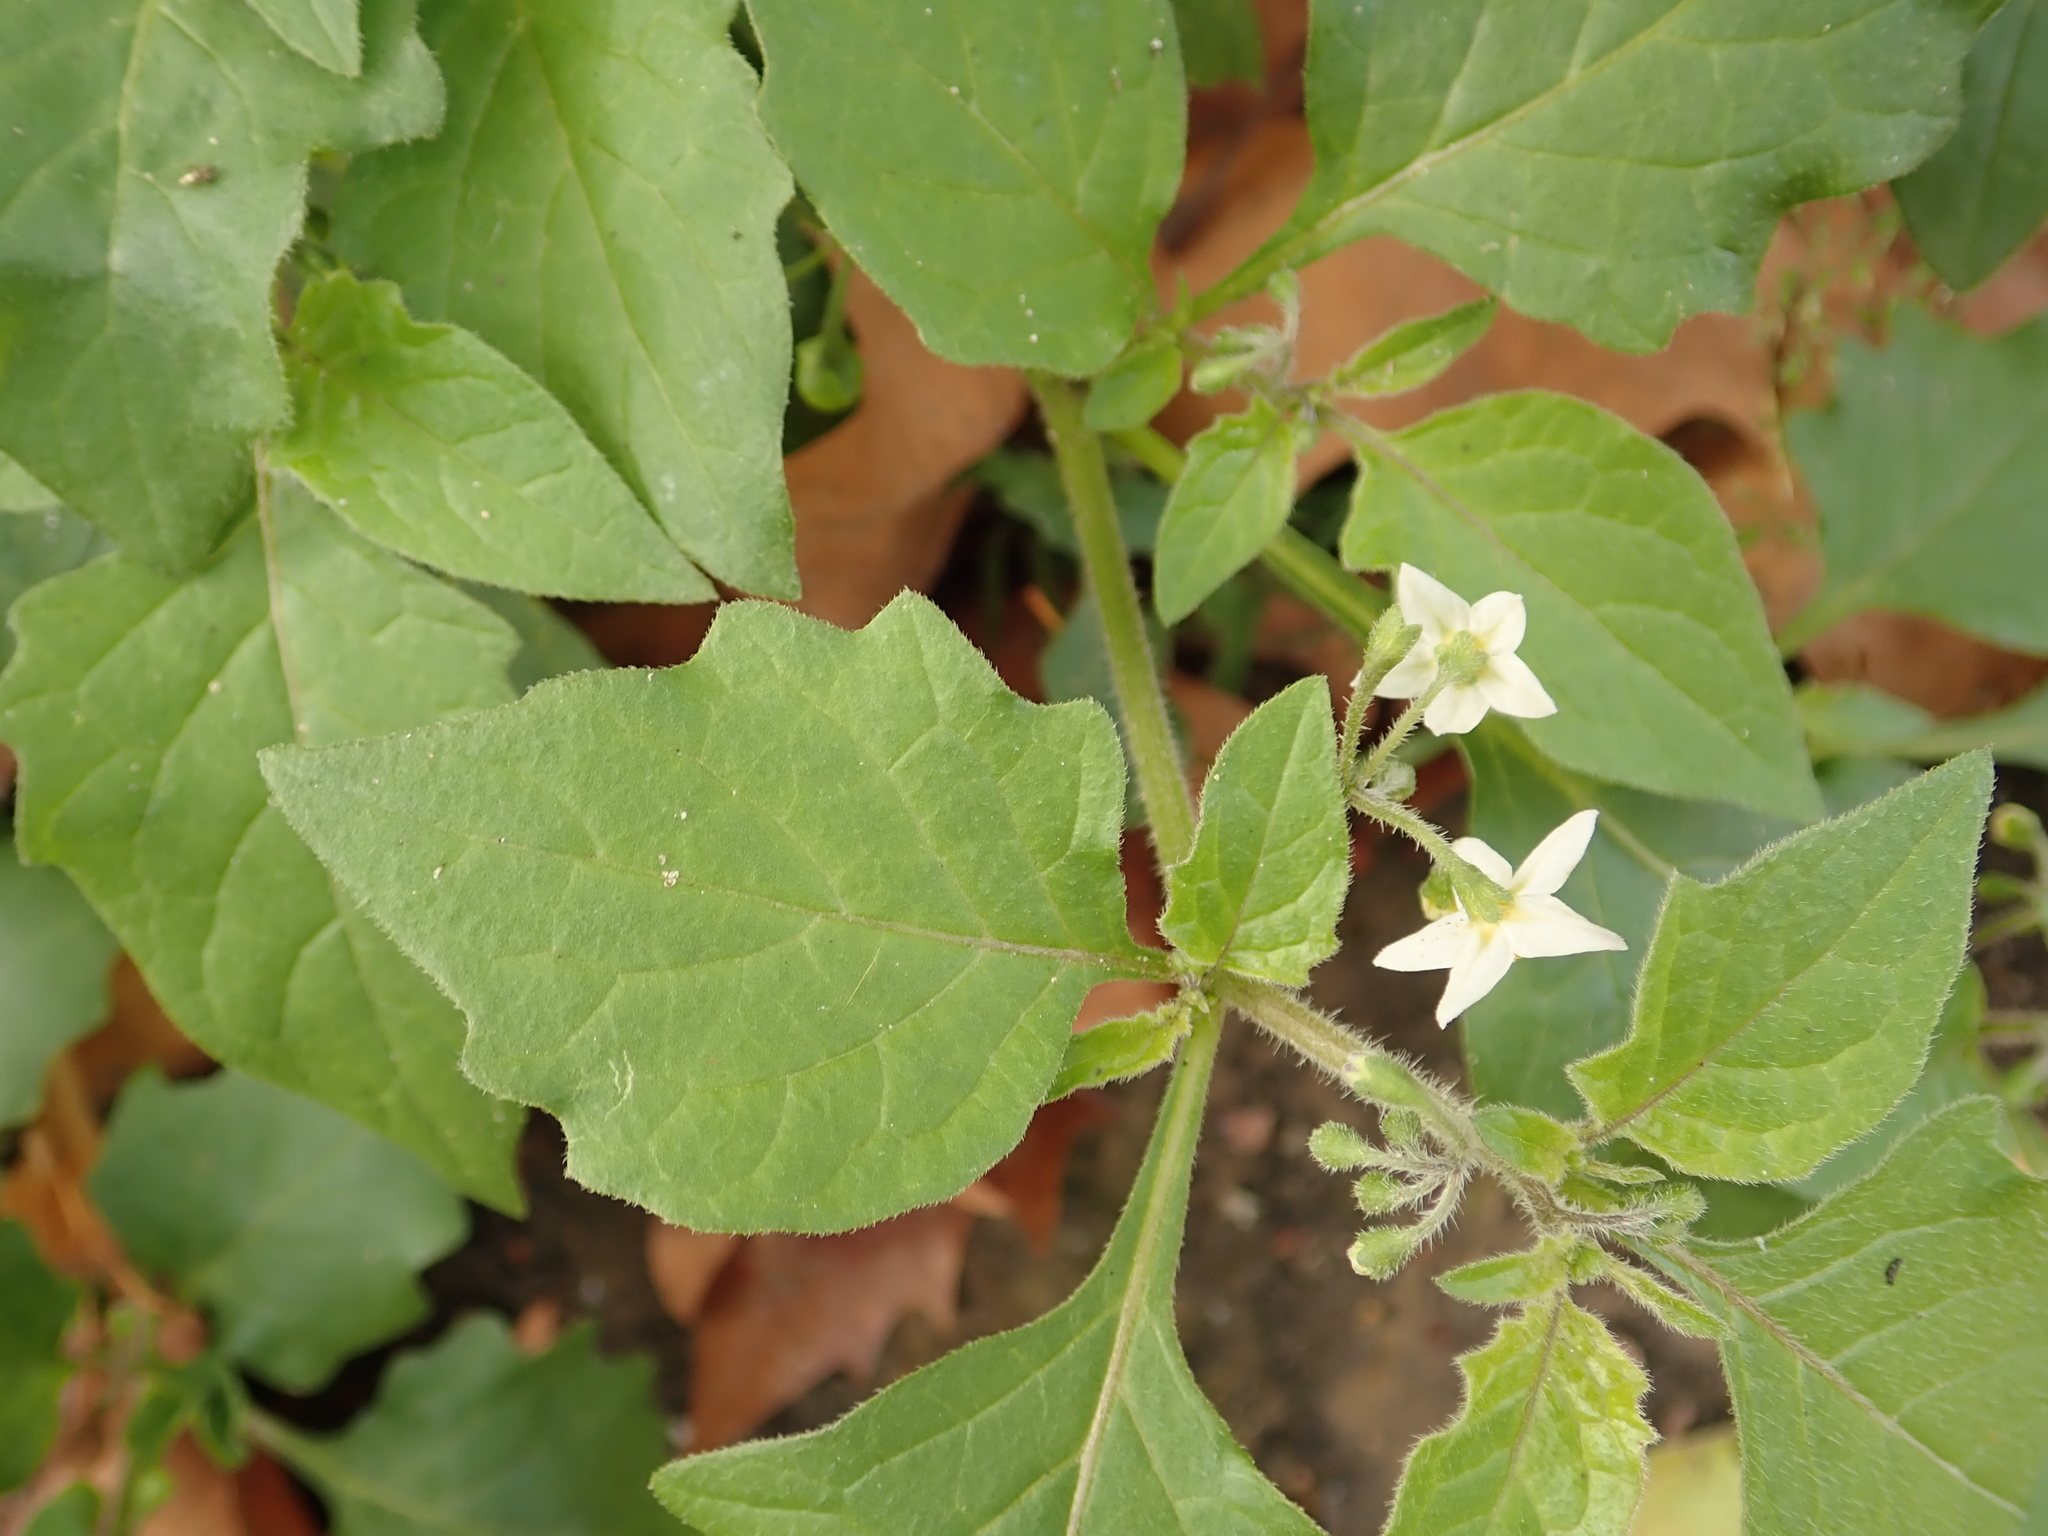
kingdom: Plantae
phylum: Tracheophyta
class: Magnoliopsida
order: Solanales
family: Solanaceae
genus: Solanum
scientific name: Solanum nigrum
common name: Black nightshade
